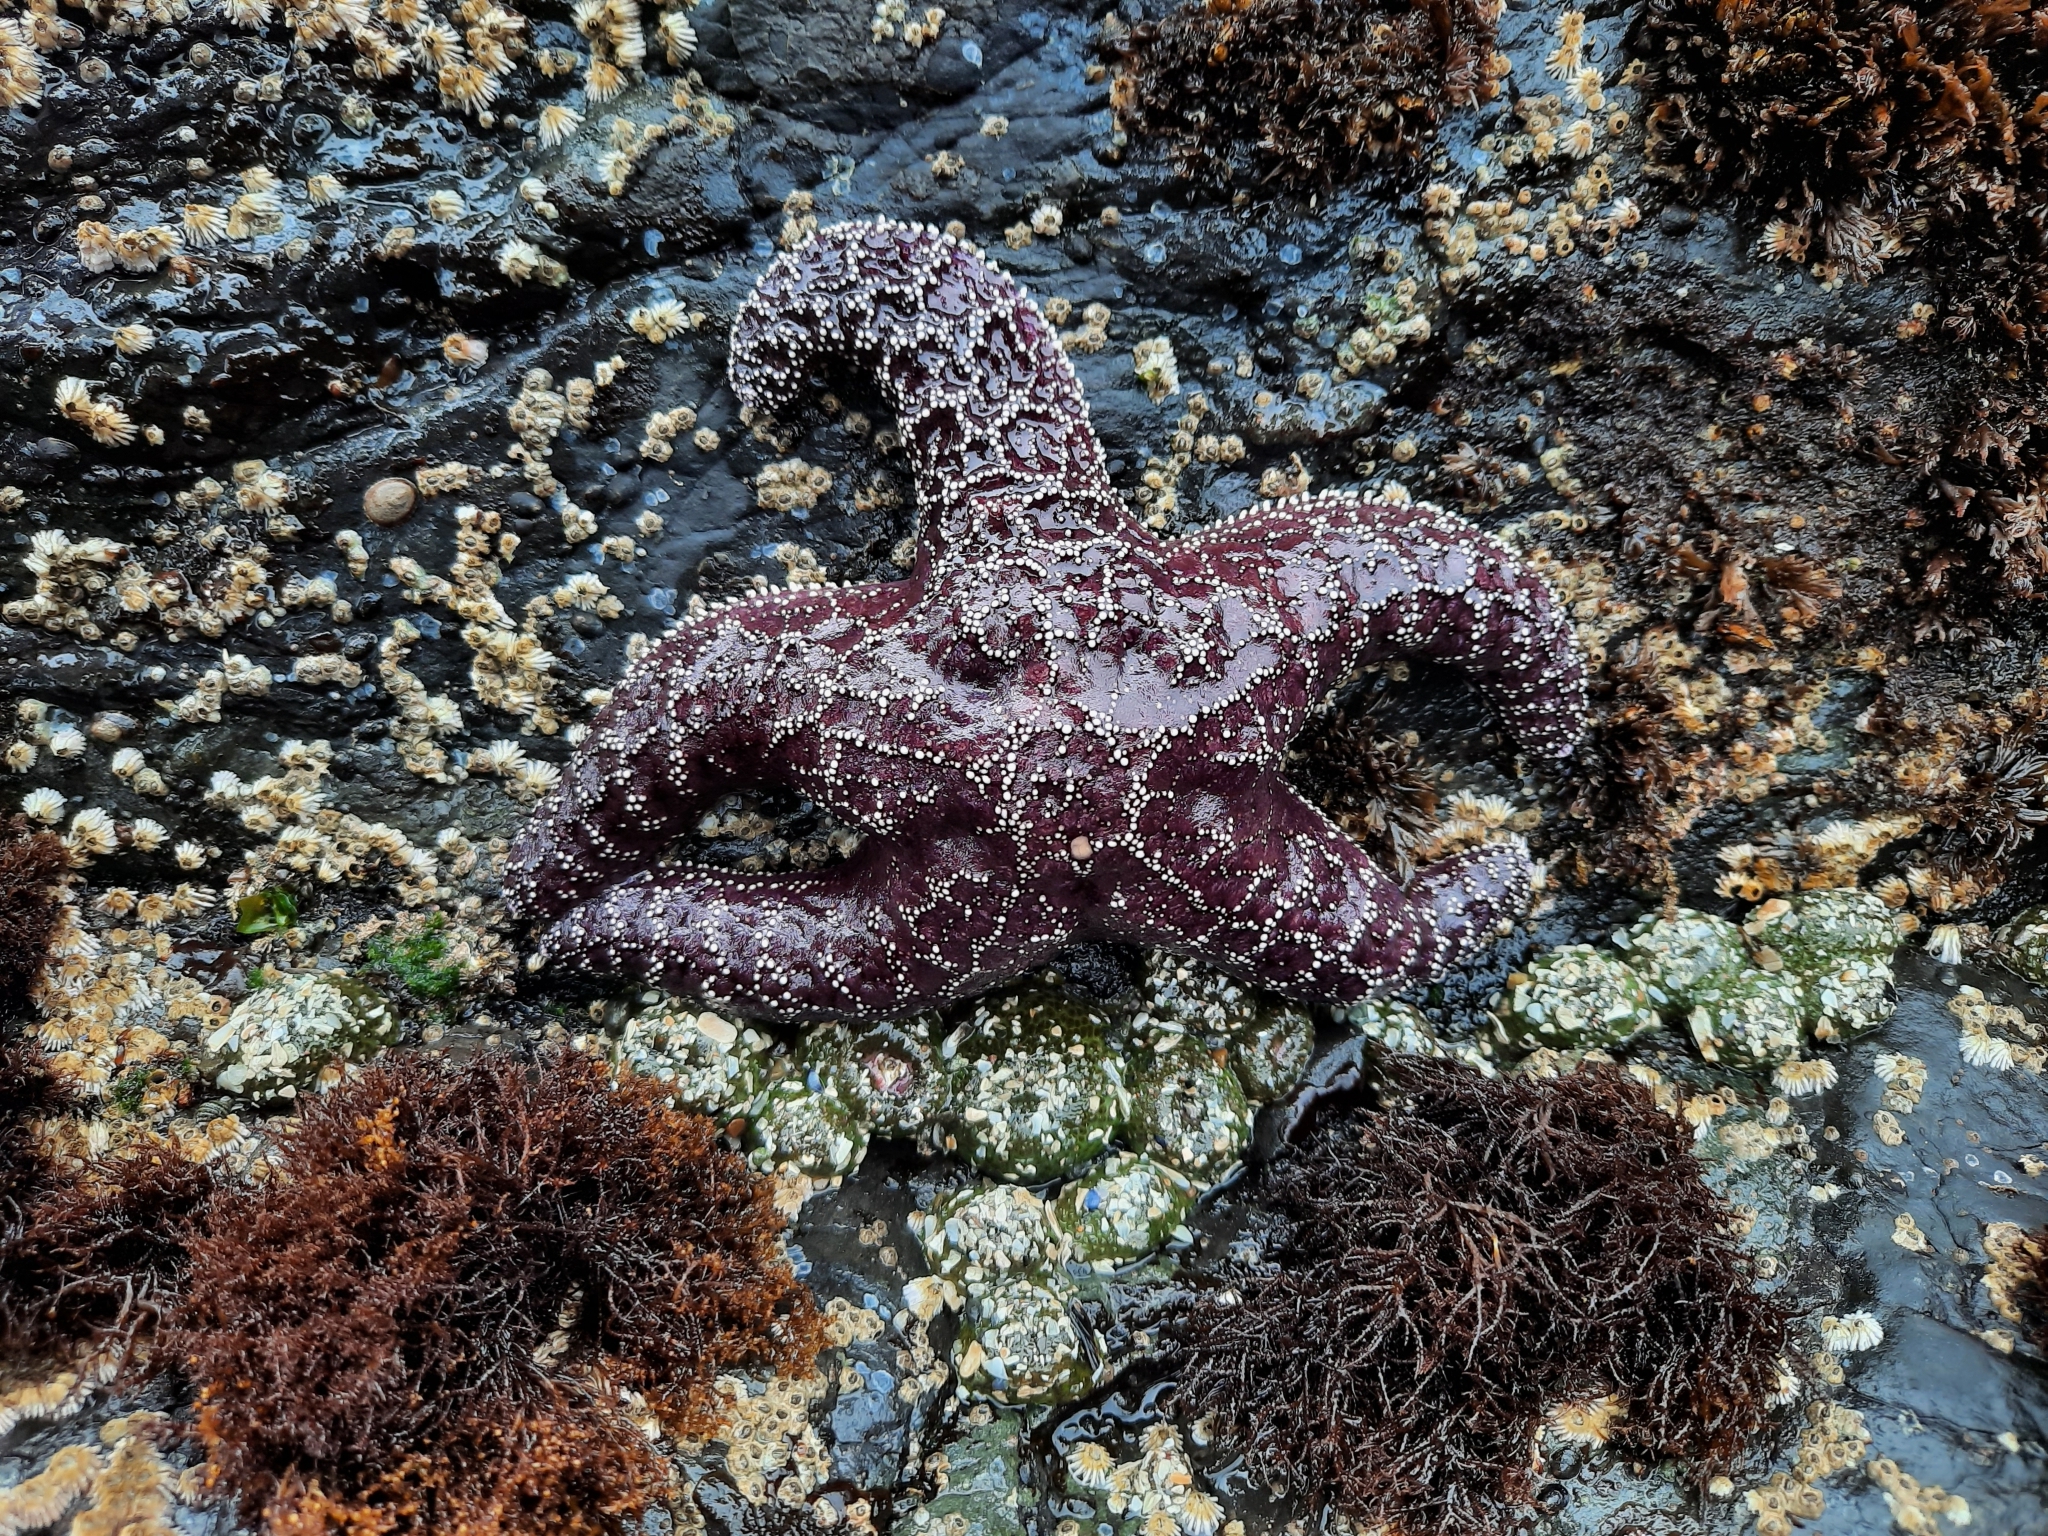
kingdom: Animalia
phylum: Echinodermata
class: Asteroidea
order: Forcipulatida
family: Asteriidae
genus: Pisaster
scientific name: Pisaster ochraceus
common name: Ochre stars
